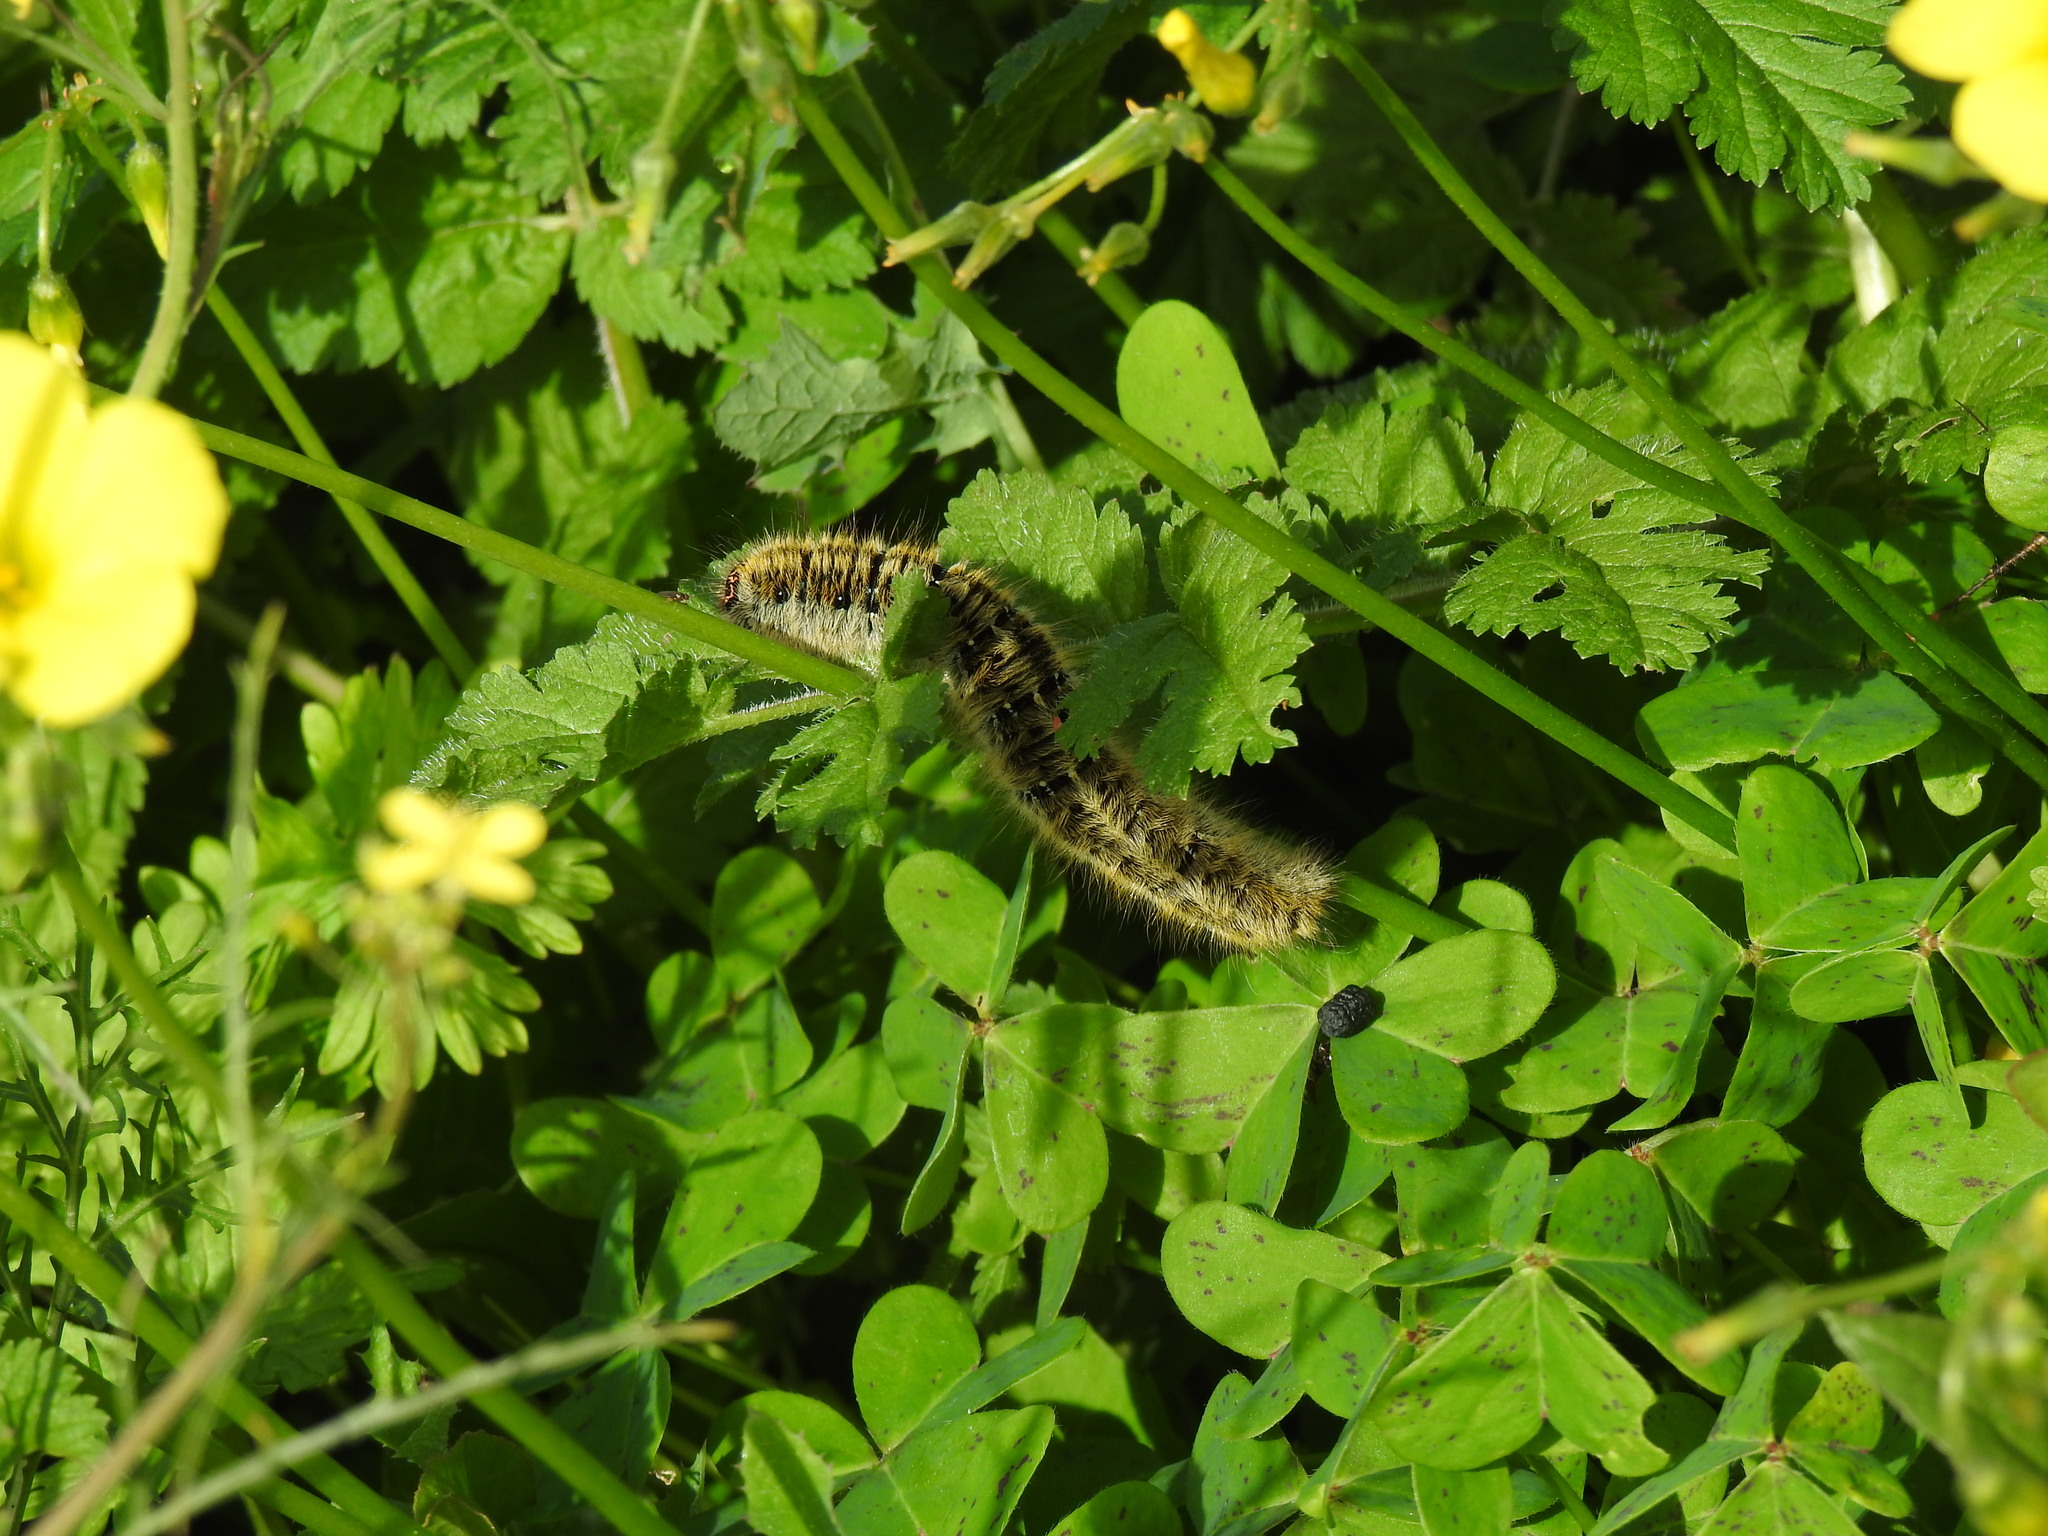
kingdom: Animalia
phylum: Arthropoda
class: Insecta
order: Lepidoptera
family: Lasiocampidae
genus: Lasiocampa
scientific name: Lasiocampa trifolii
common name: Grass eggar
